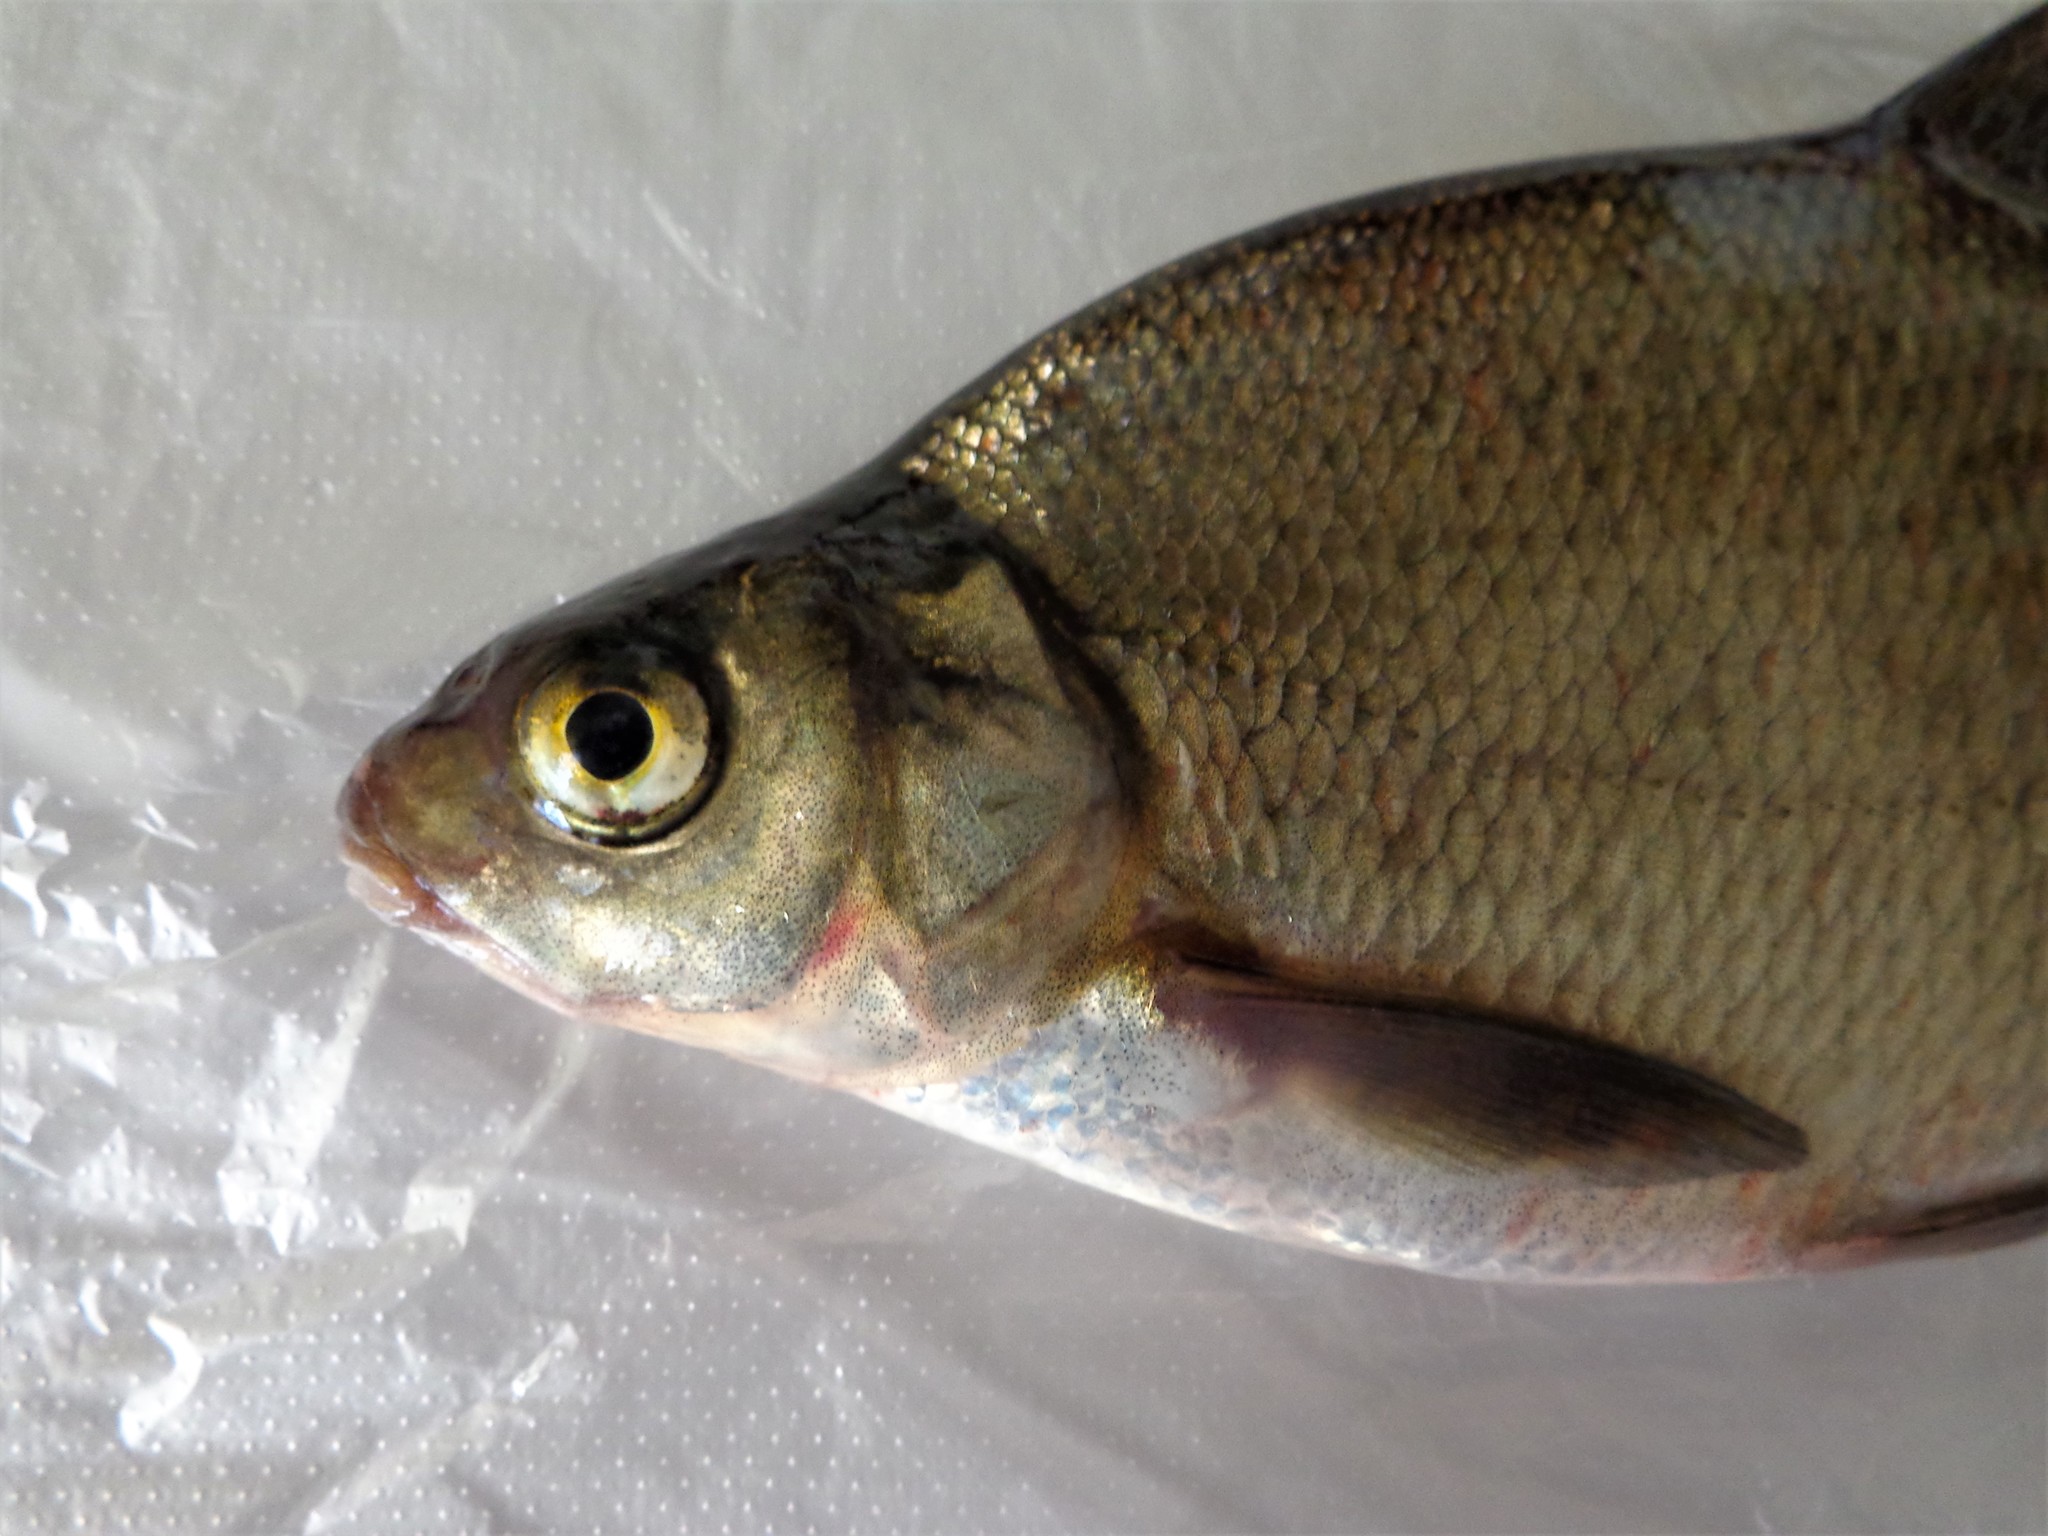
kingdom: Animalia
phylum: Chordata
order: Cypriniformes
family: Cyprinidae
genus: Abramis
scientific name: Abramis brama
